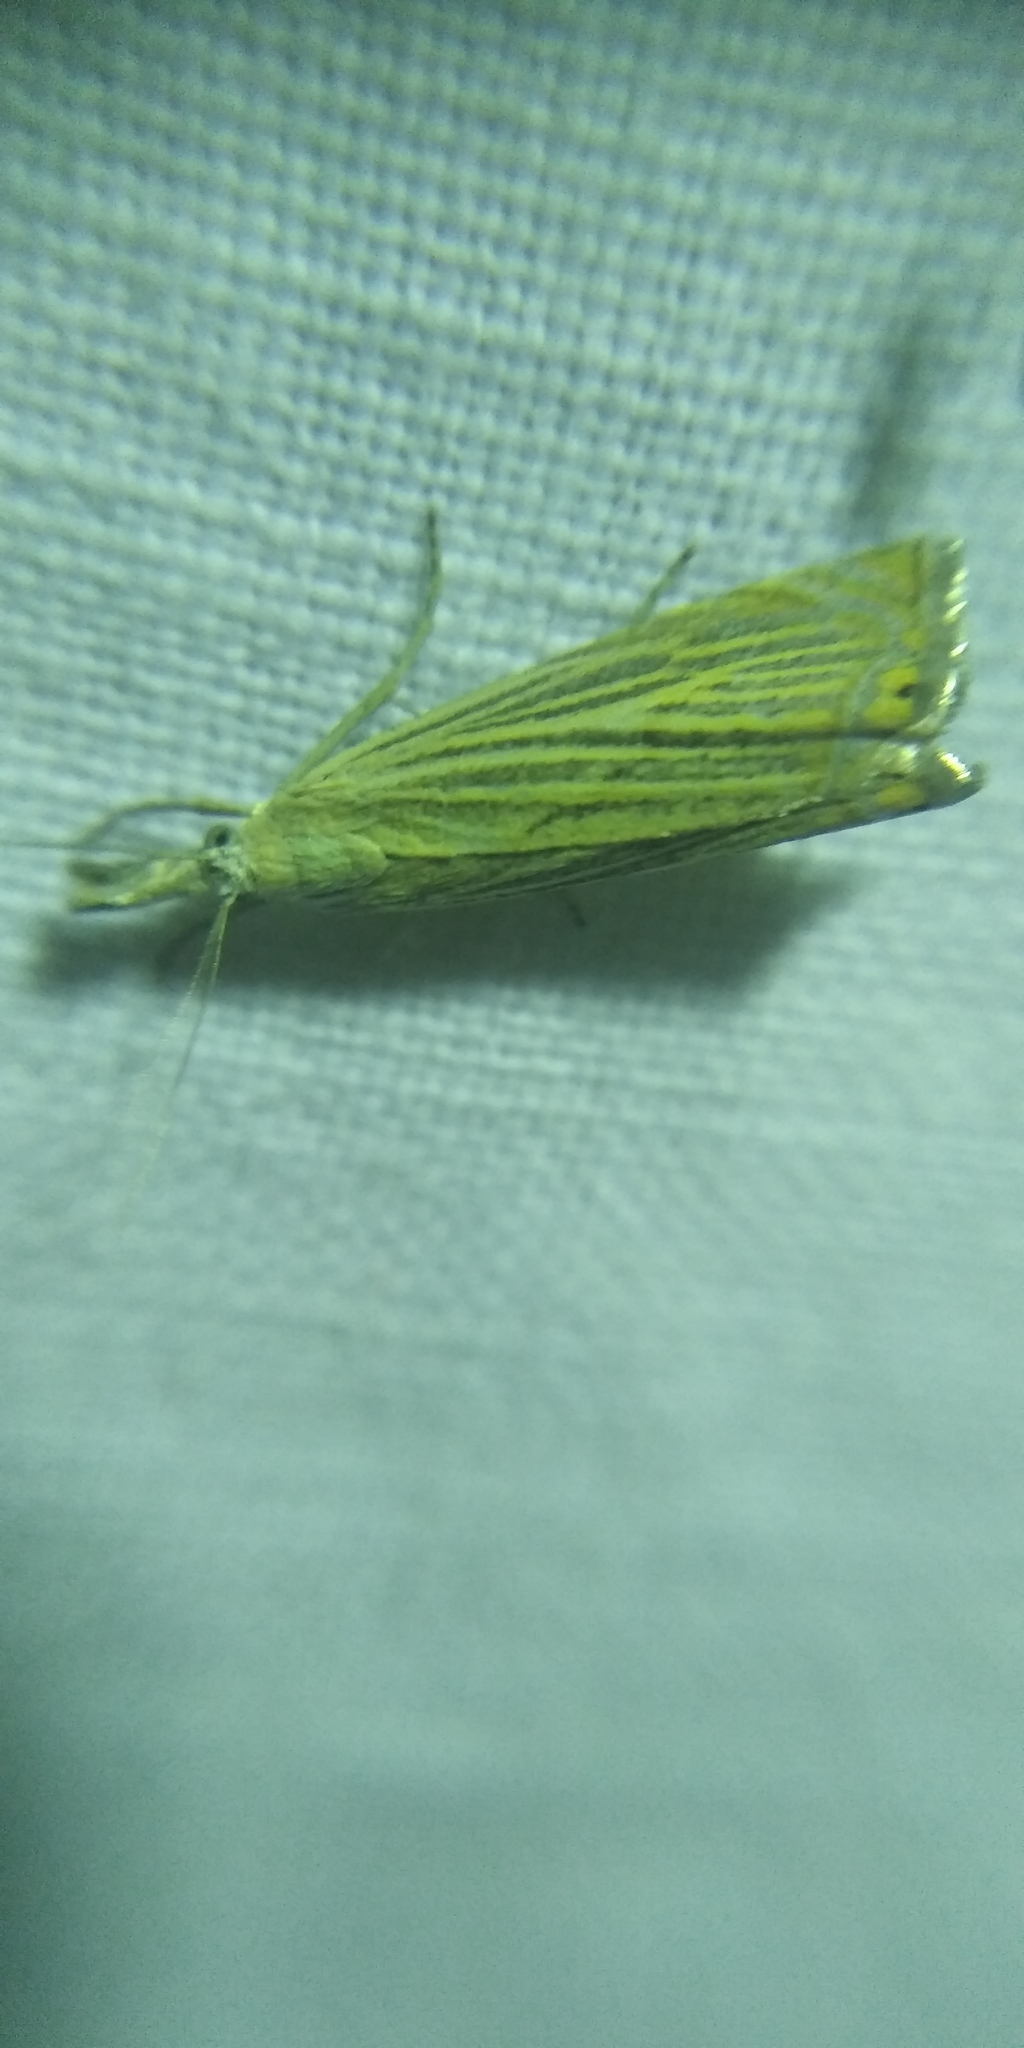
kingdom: Animalia
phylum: Arthropoda
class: Insecta
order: Lepidoptera
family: Crambidae
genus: Chrysoteuchia
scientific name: Chrysoteuchia culmella
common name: Garden grass-veneer
